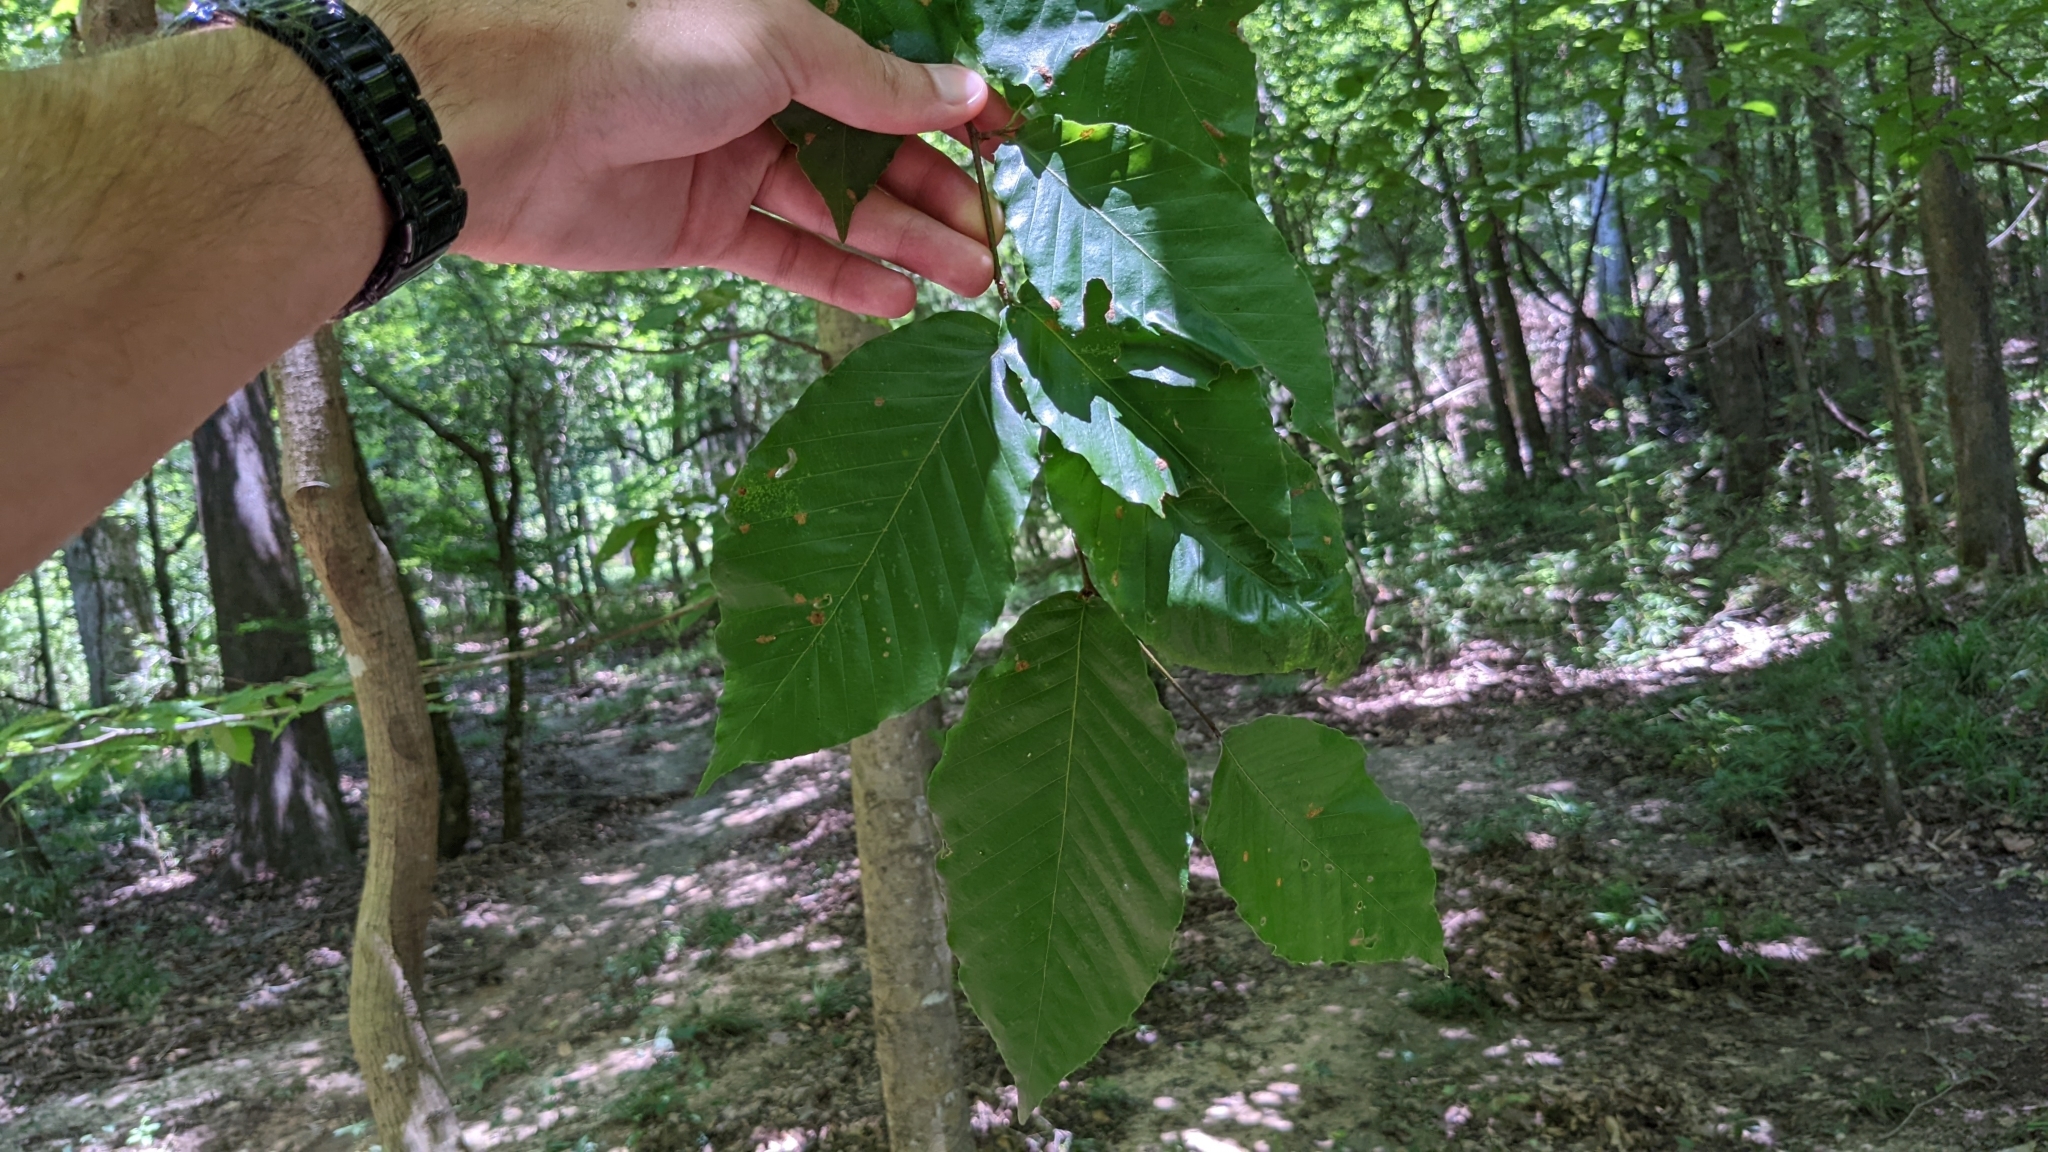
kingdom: Plantae
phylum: Tracheophyta
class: Magnoliopsida
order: Fagales
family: Fagaceae
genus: Fagus
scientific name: Fagus grandifolia
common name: American beech
